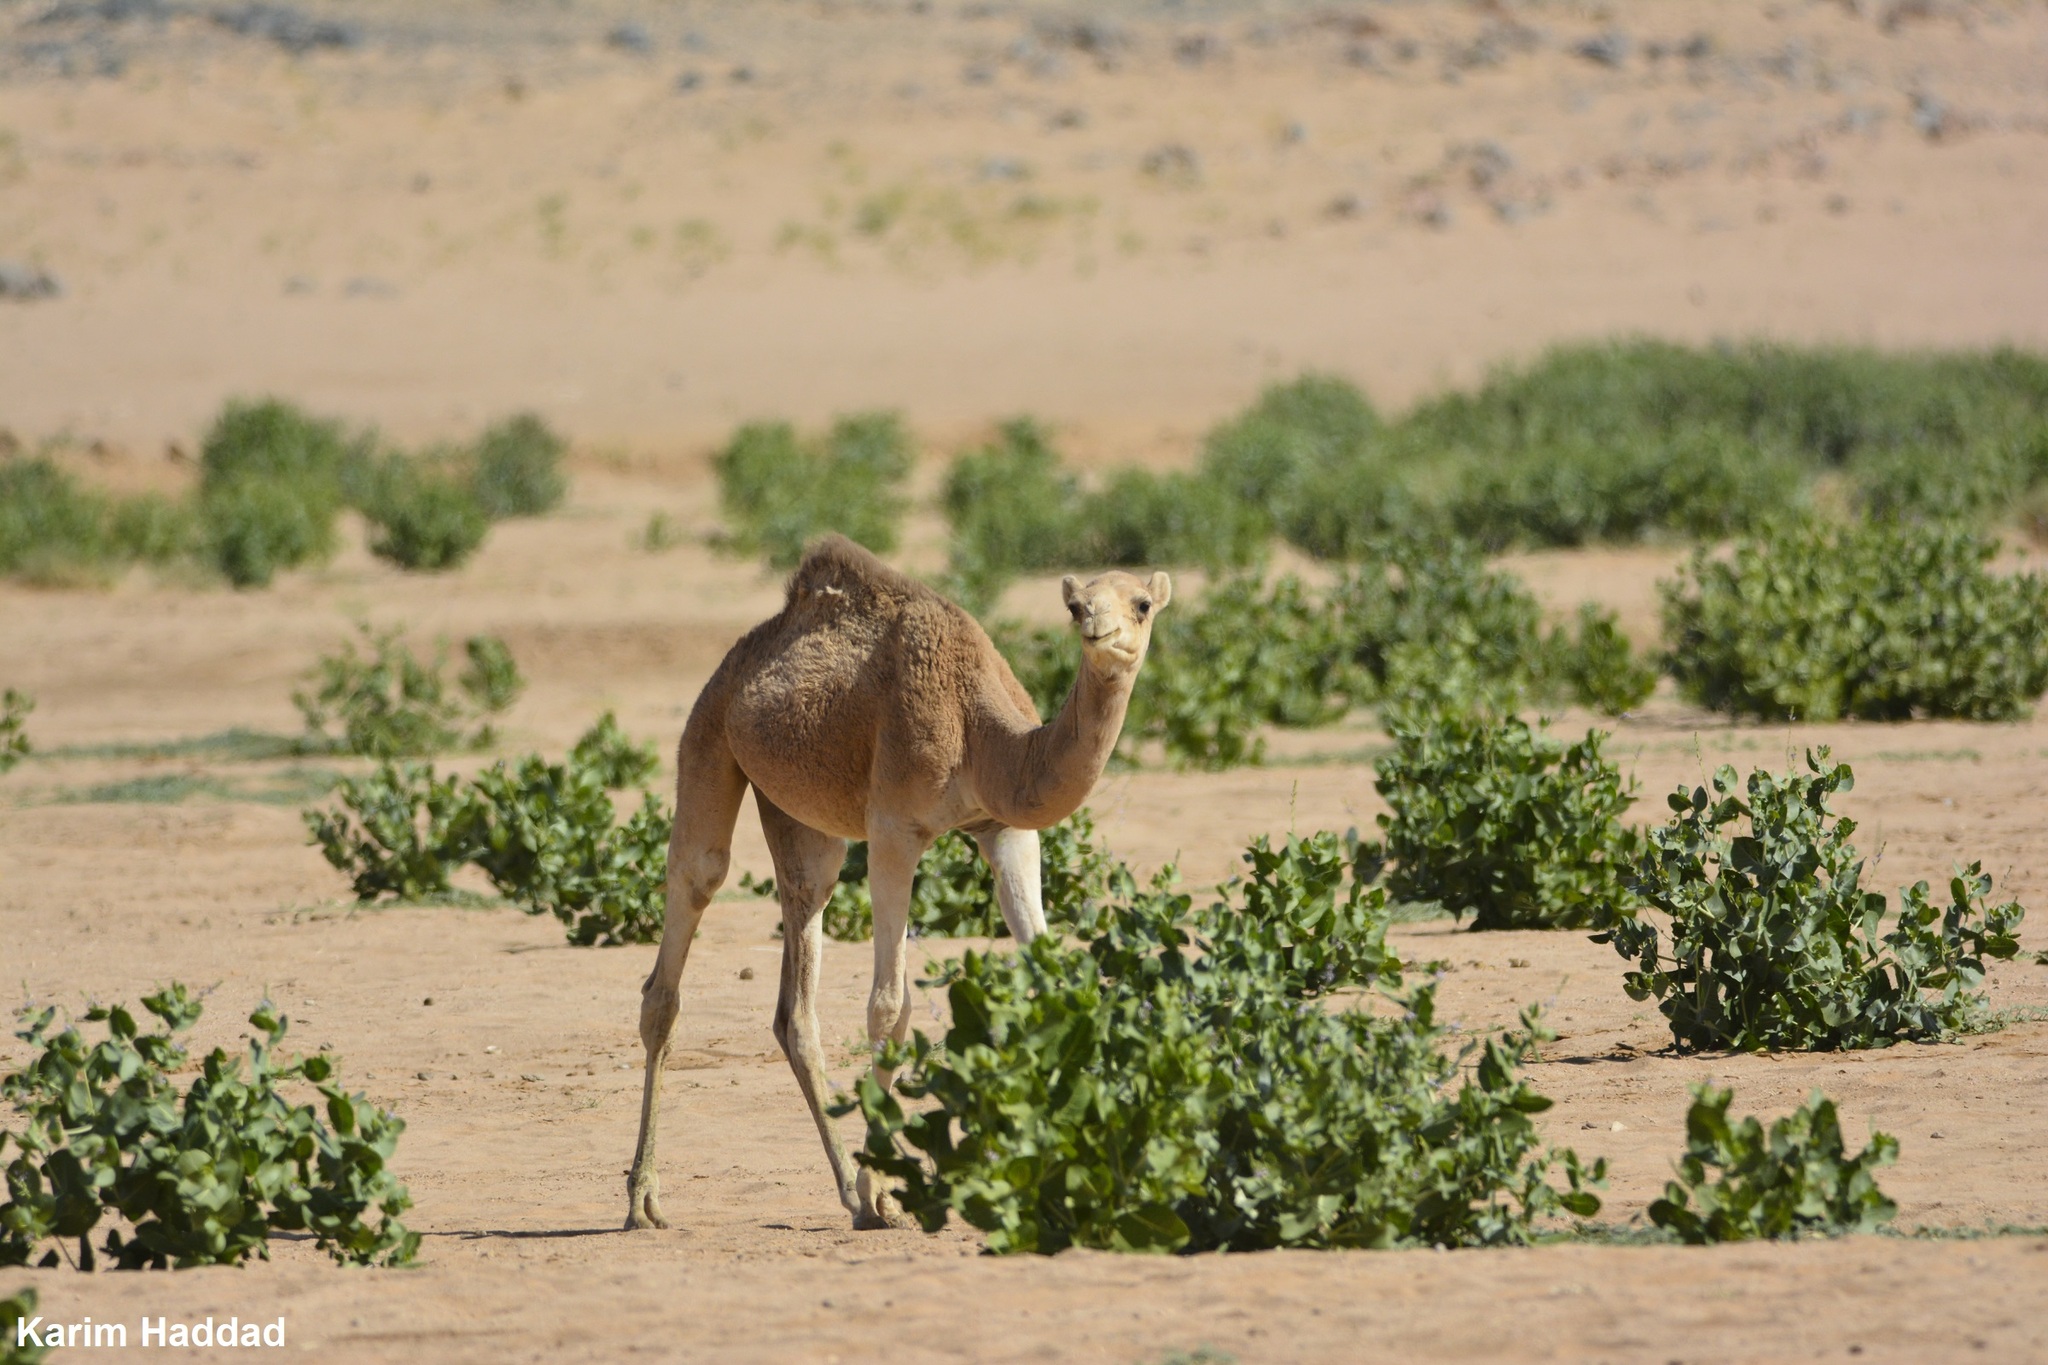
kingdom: Animalia
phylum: Chordata
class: Mammalia
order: Artiodactyla
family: Camelidae
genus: Camelus
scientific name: Camelus dromedarius
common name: One-humped camel
